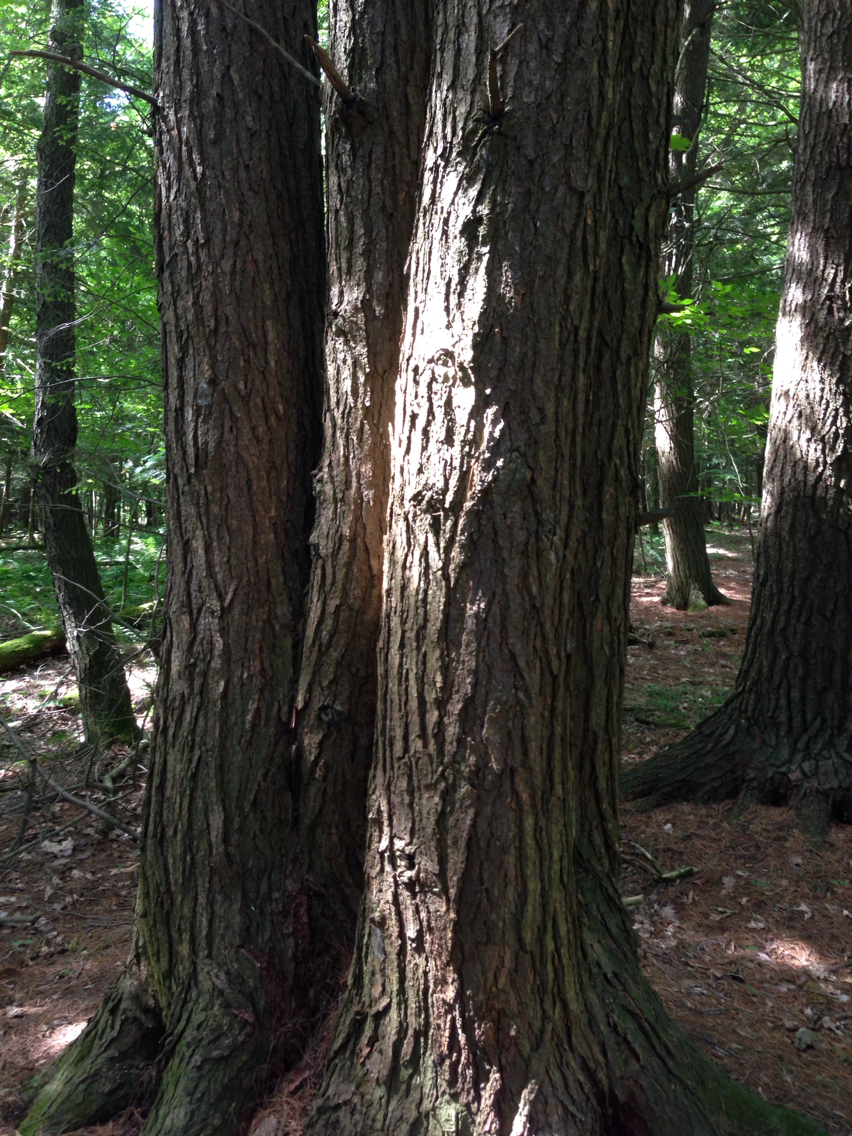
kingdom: Plantae
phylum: Tracheophyta
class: Pinopsida
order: Pinales
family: Pinaceae
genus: Tsuga
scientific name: Tsuga canadensis
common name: Eastern hemlock
